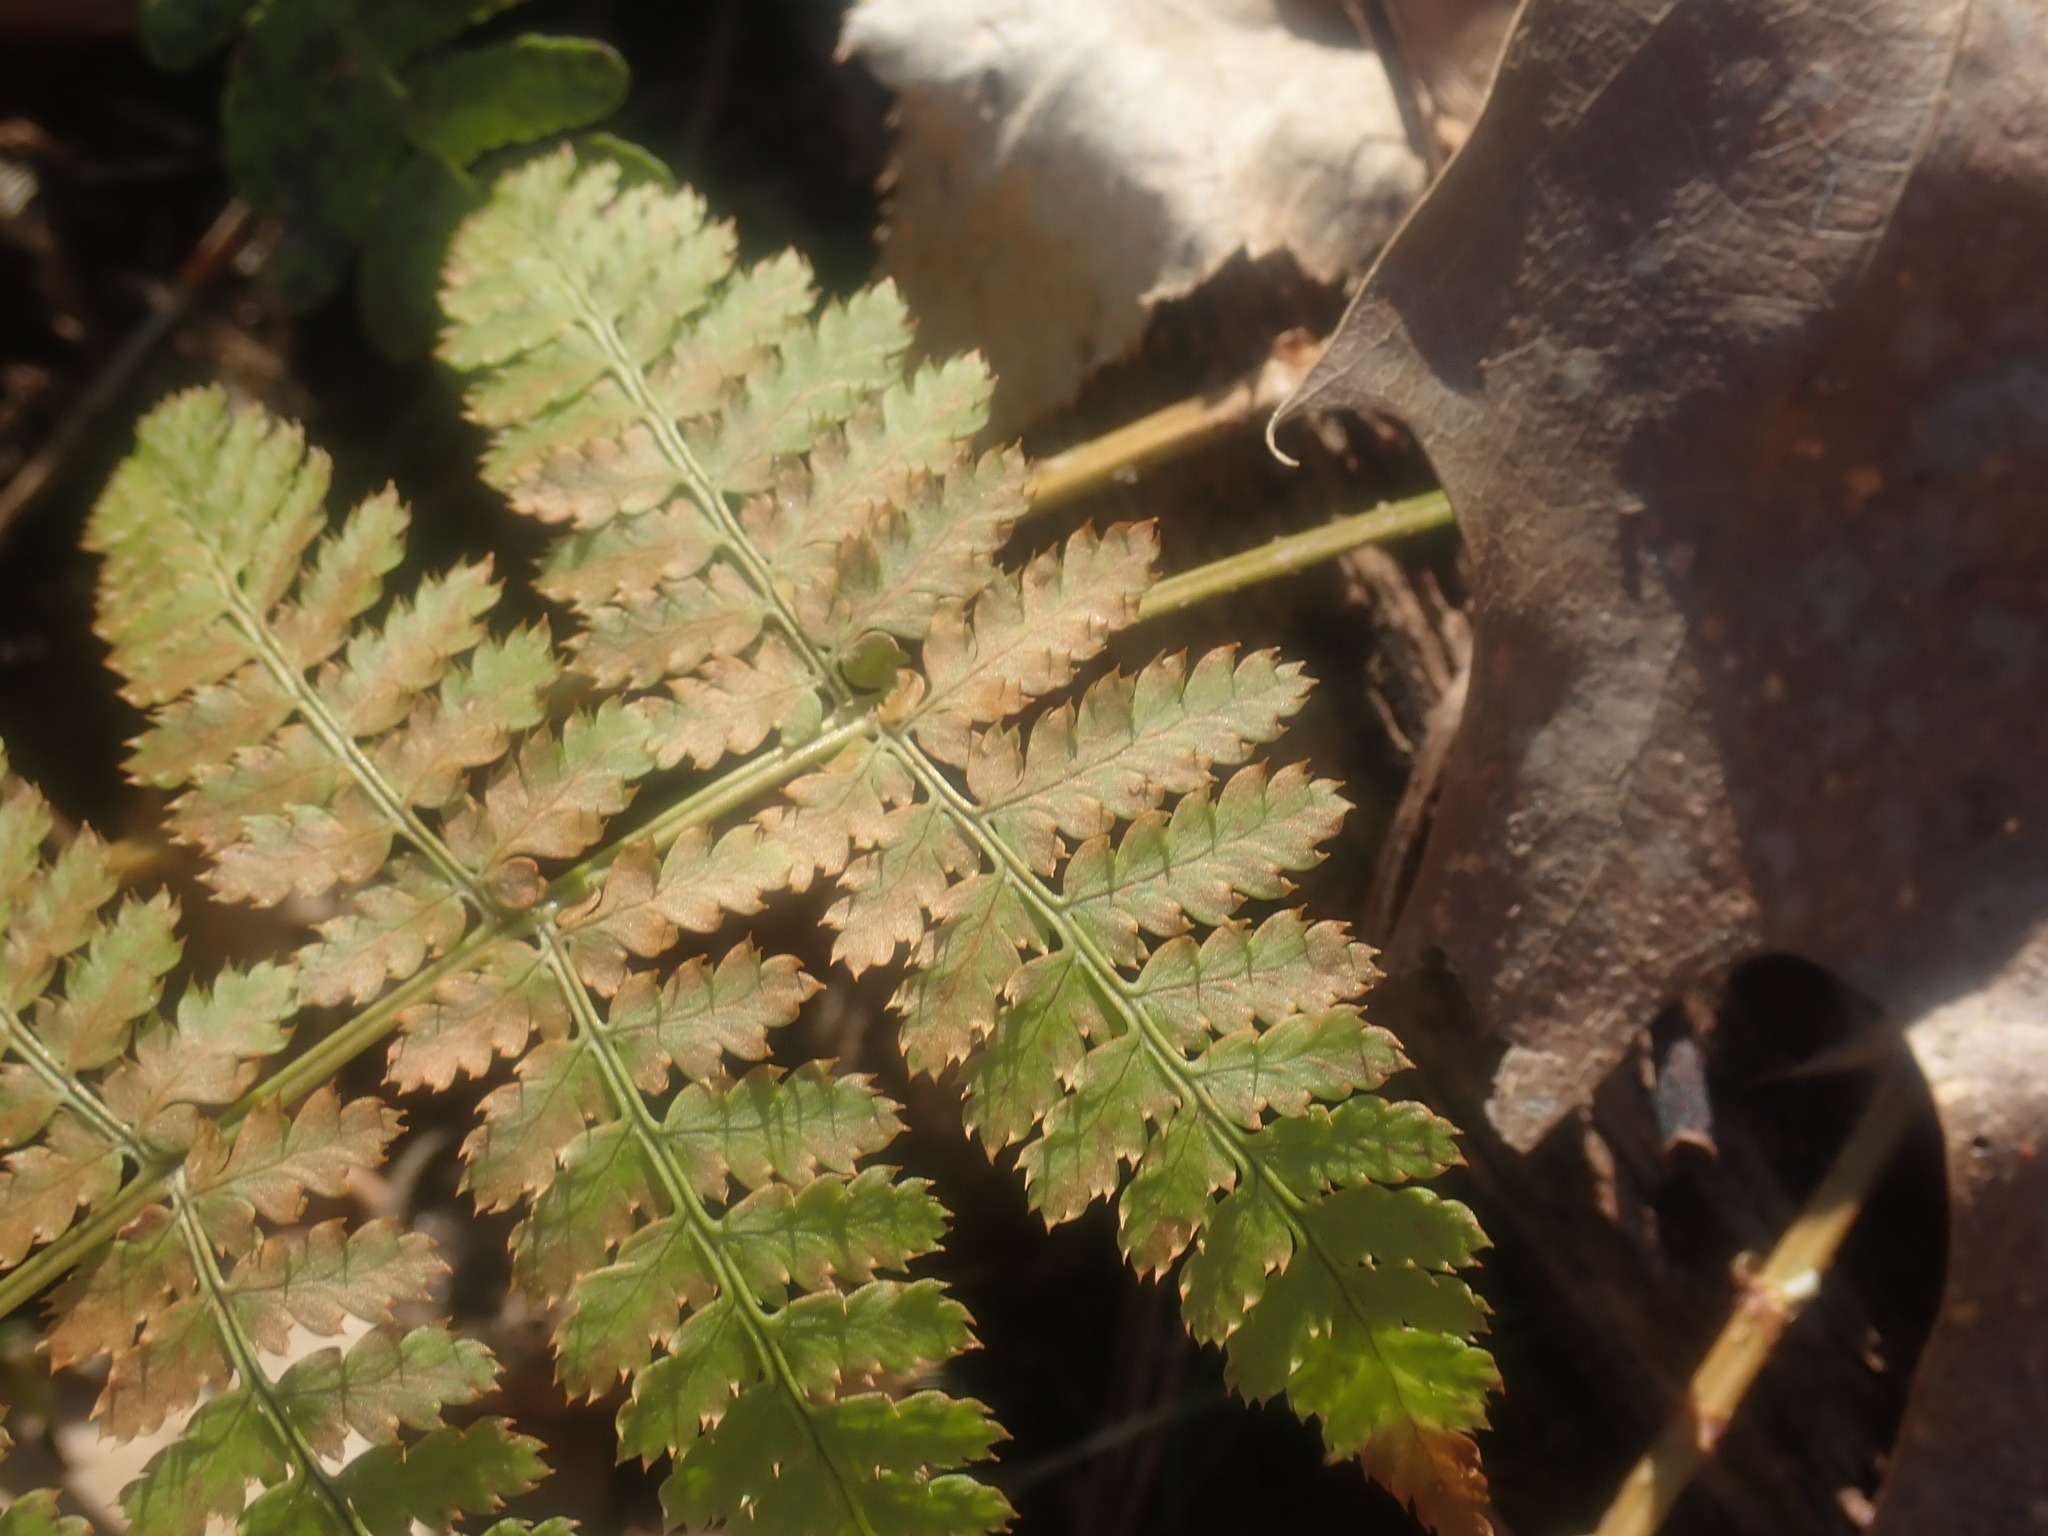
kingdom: Plantae
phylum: Tracheophyta
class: Polypodiopsida
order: Polypodiales
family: Dryopteridaceae
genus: Dryopteris
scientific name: Dryopteris intermedia
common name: Evergreen wood fern
